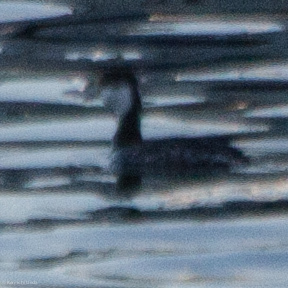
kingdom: Animalia
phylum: Chordata
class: Aves
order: Podicipediformes
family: Podicipedidae
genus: Podiceps
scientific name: Podiceps auritus
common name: Horned grebe
